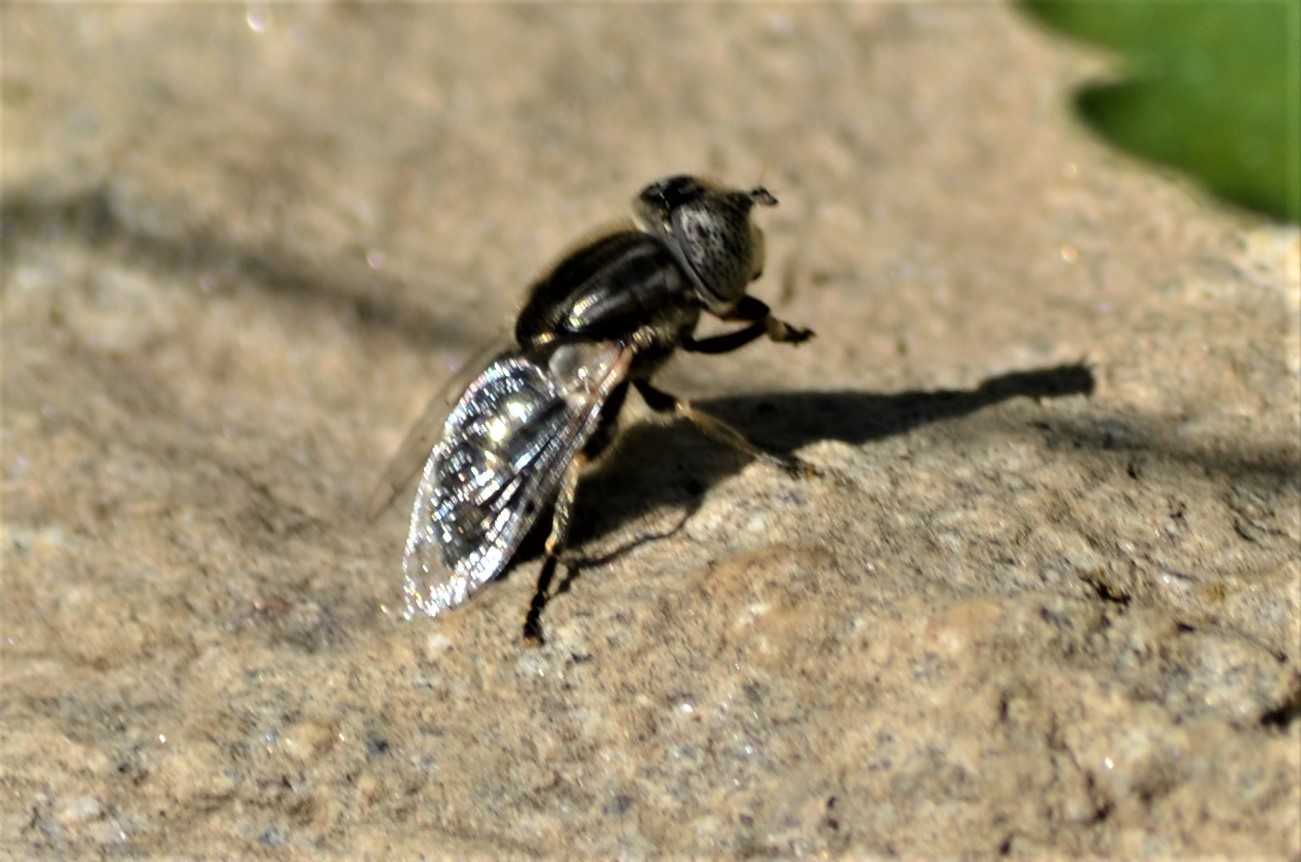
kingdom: Animalia
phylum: Arthropoda
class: Insecta
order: Diptera
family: Syrphidae
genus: Eristalinus
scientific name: Eristalinus aeneus
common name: Syrphid fly
